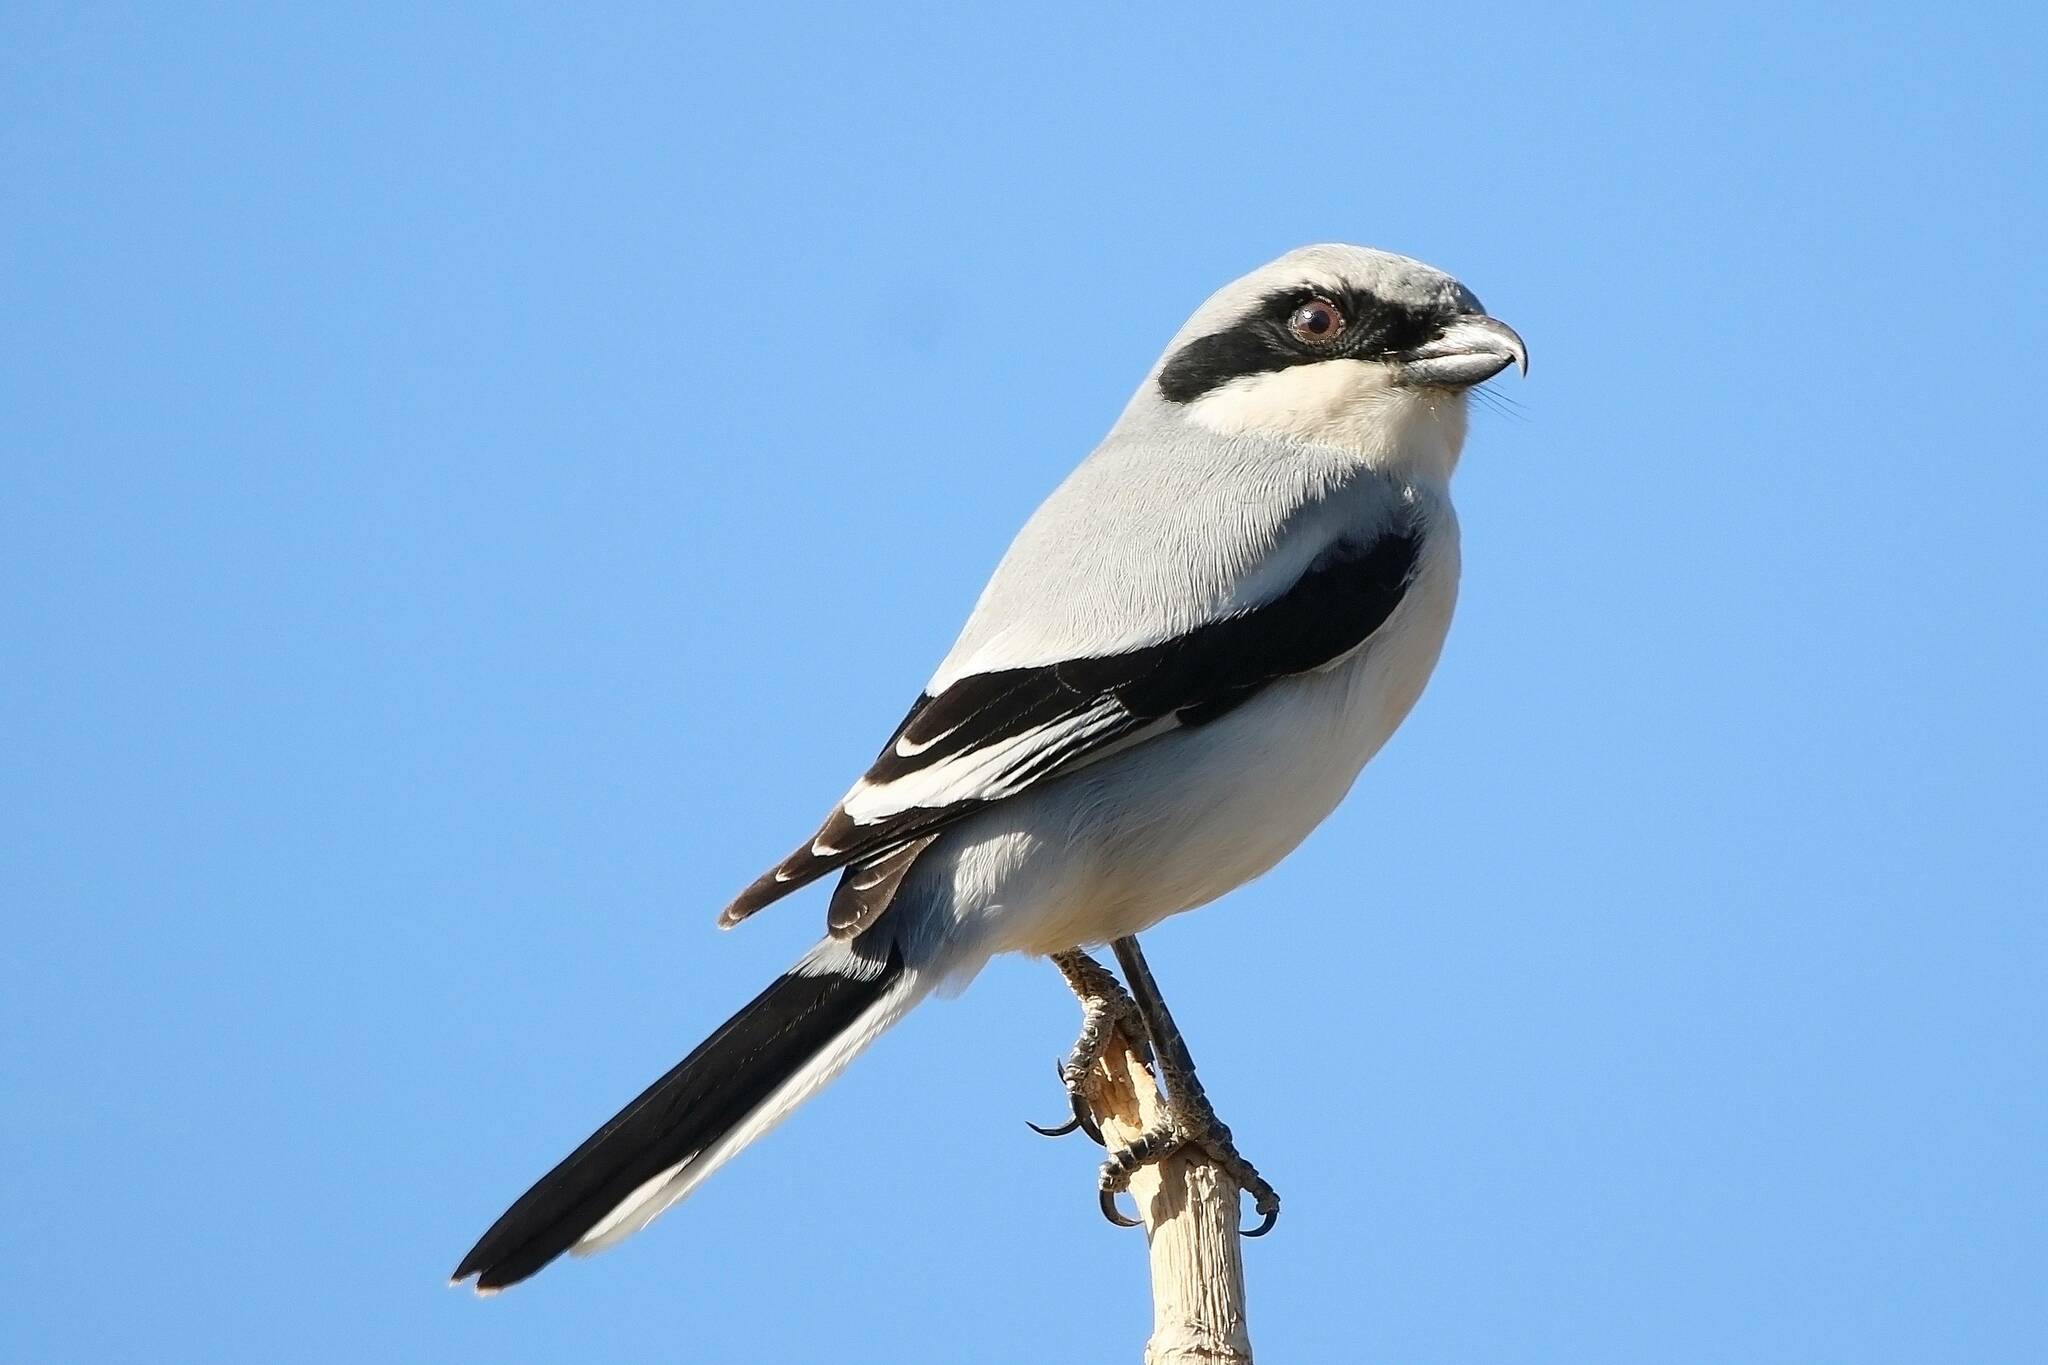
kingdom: Animalia
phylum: Chordata
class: Aves
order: Passeriformes
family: Laniidae
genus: Lanius
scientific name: Lanius excubitor
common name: Great grey shrike
